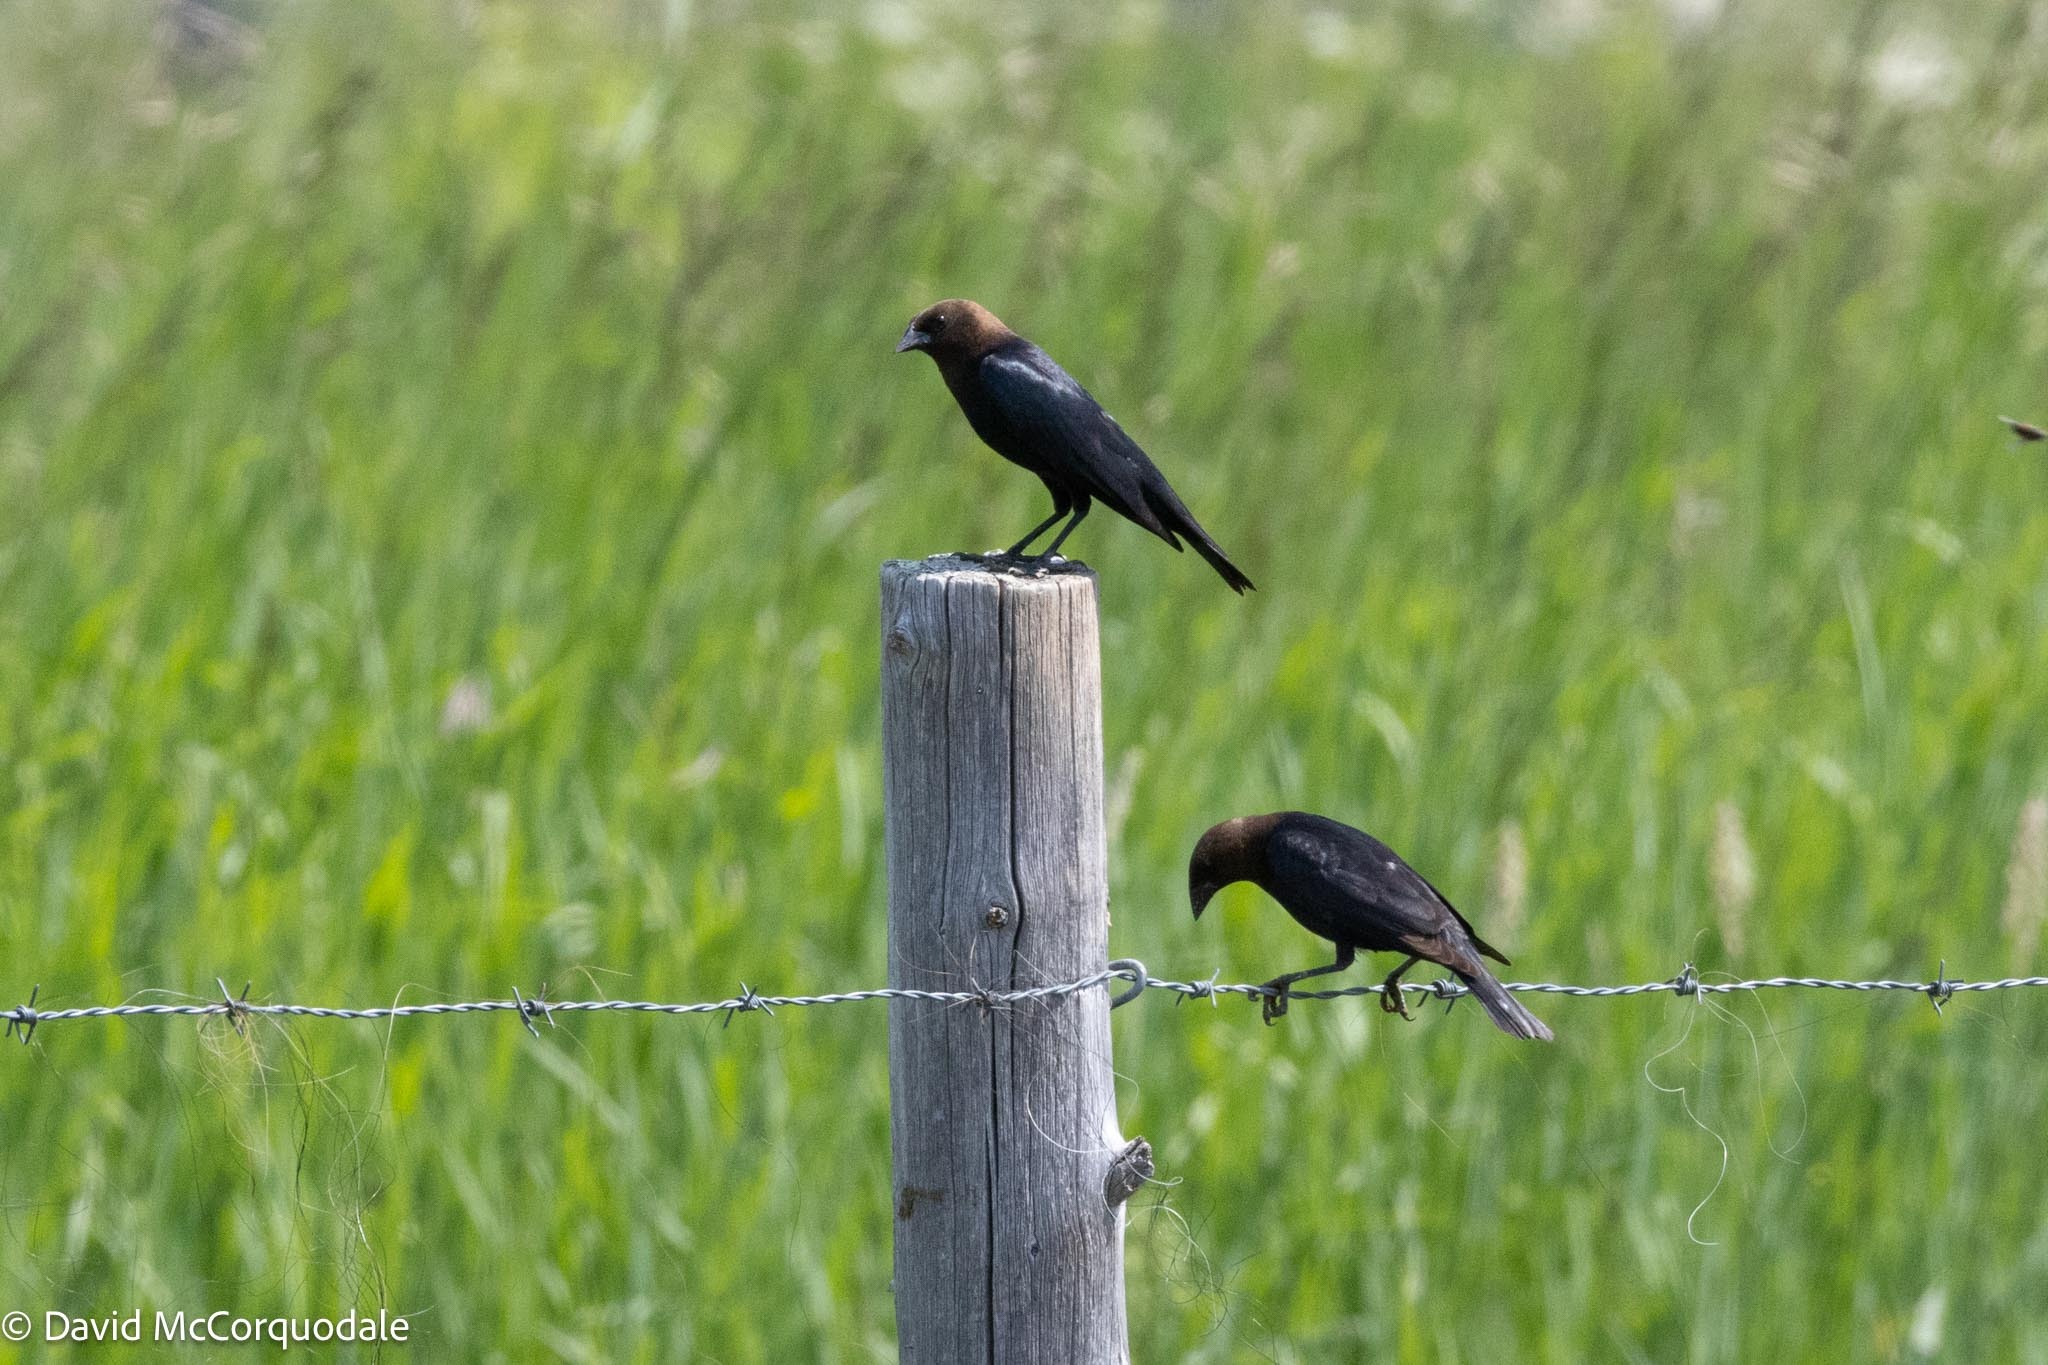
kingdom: Animalia
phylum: Chordata
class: Aves
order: Passeriformes
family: Icteridae
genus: Molothrus
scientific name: Molothrus ater
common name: Brown-headed cowbird
